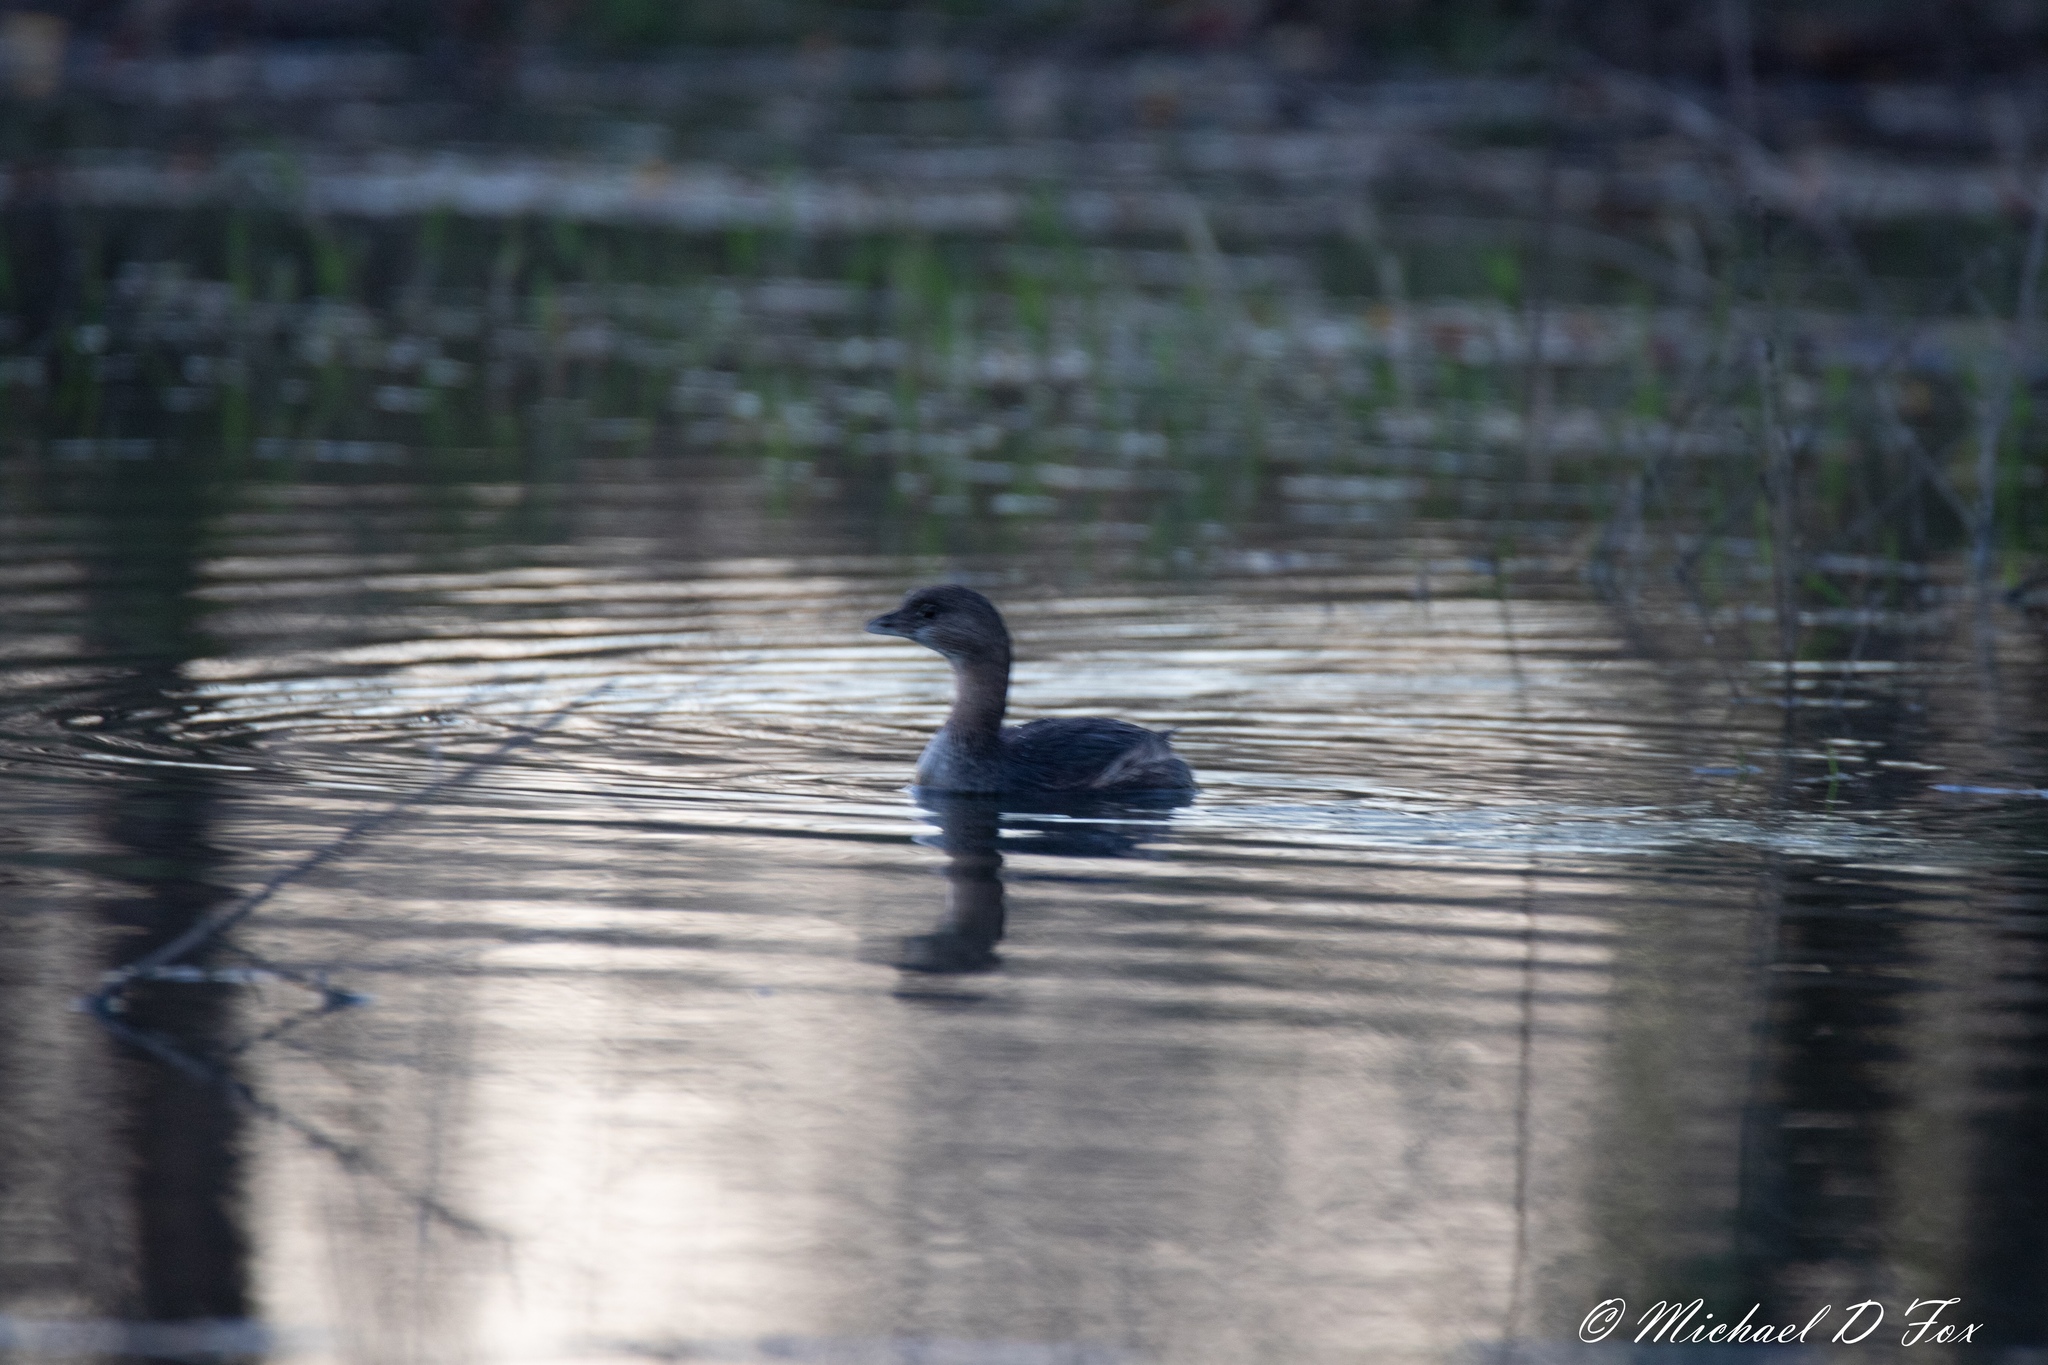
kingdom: Animalia
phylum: Chordata
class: Aves
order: Podicipediformes
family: Podicipedidae
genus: Podilymbus
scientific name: Podilymbus podiceps
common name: Pied-billed grebe
